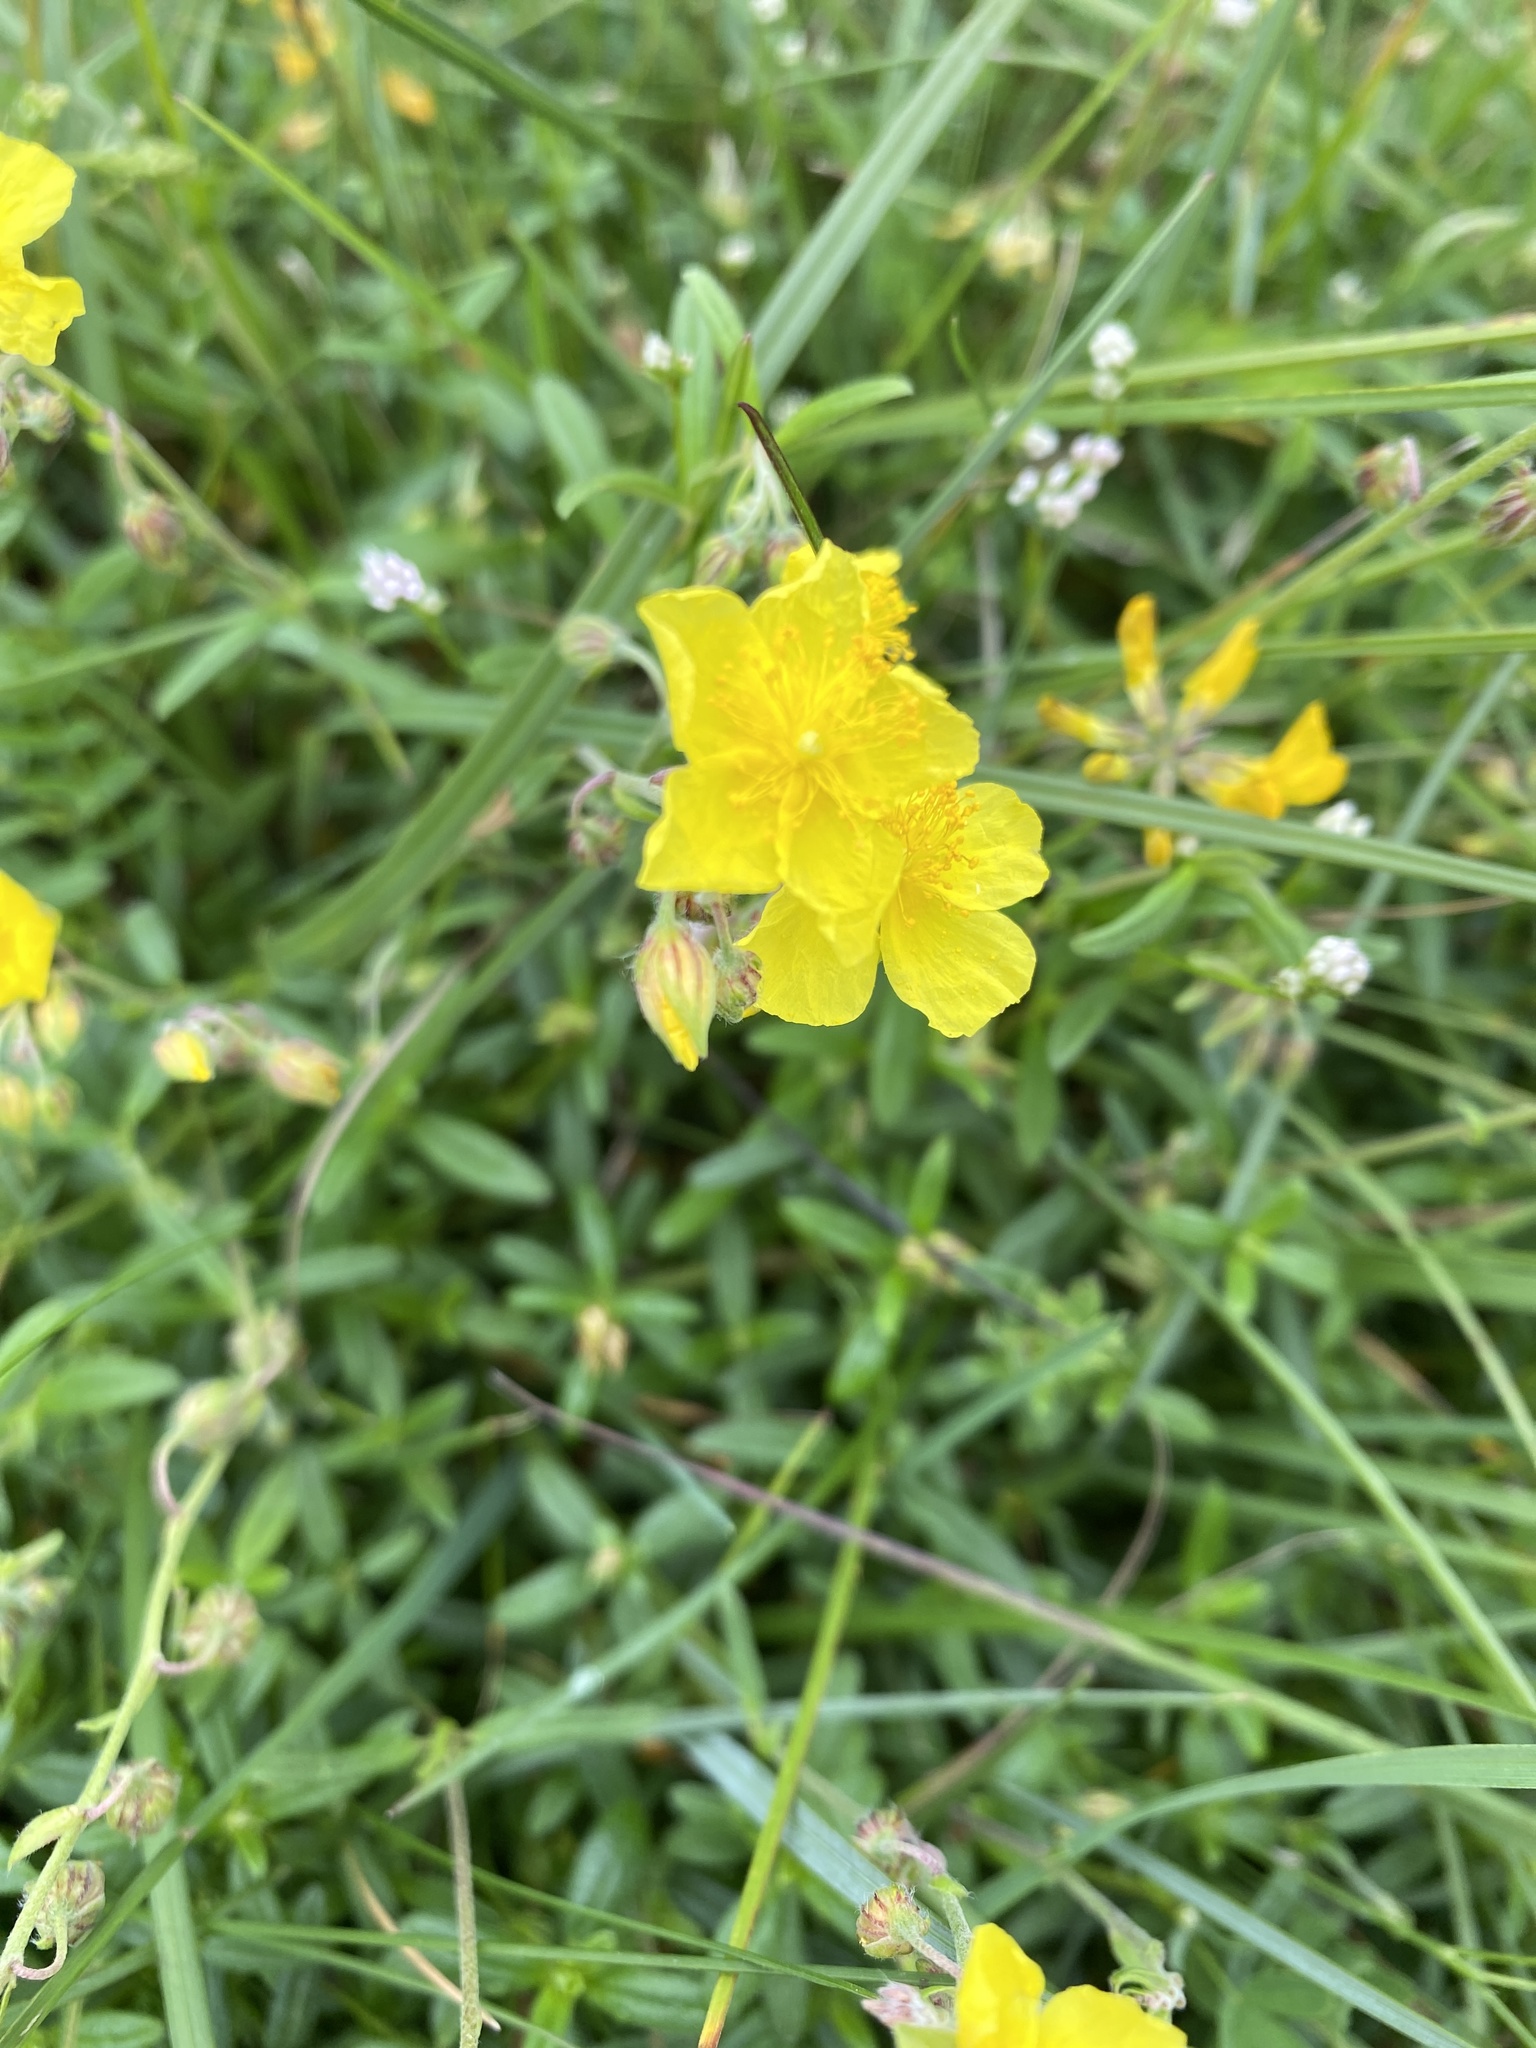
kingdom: Plantae
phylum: Tracheophyta
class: Magnoliopsida
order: Malvales
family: Cistaceae
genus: Helianthemum
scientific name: Helianthemum nummularium
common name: Common rock-rose
